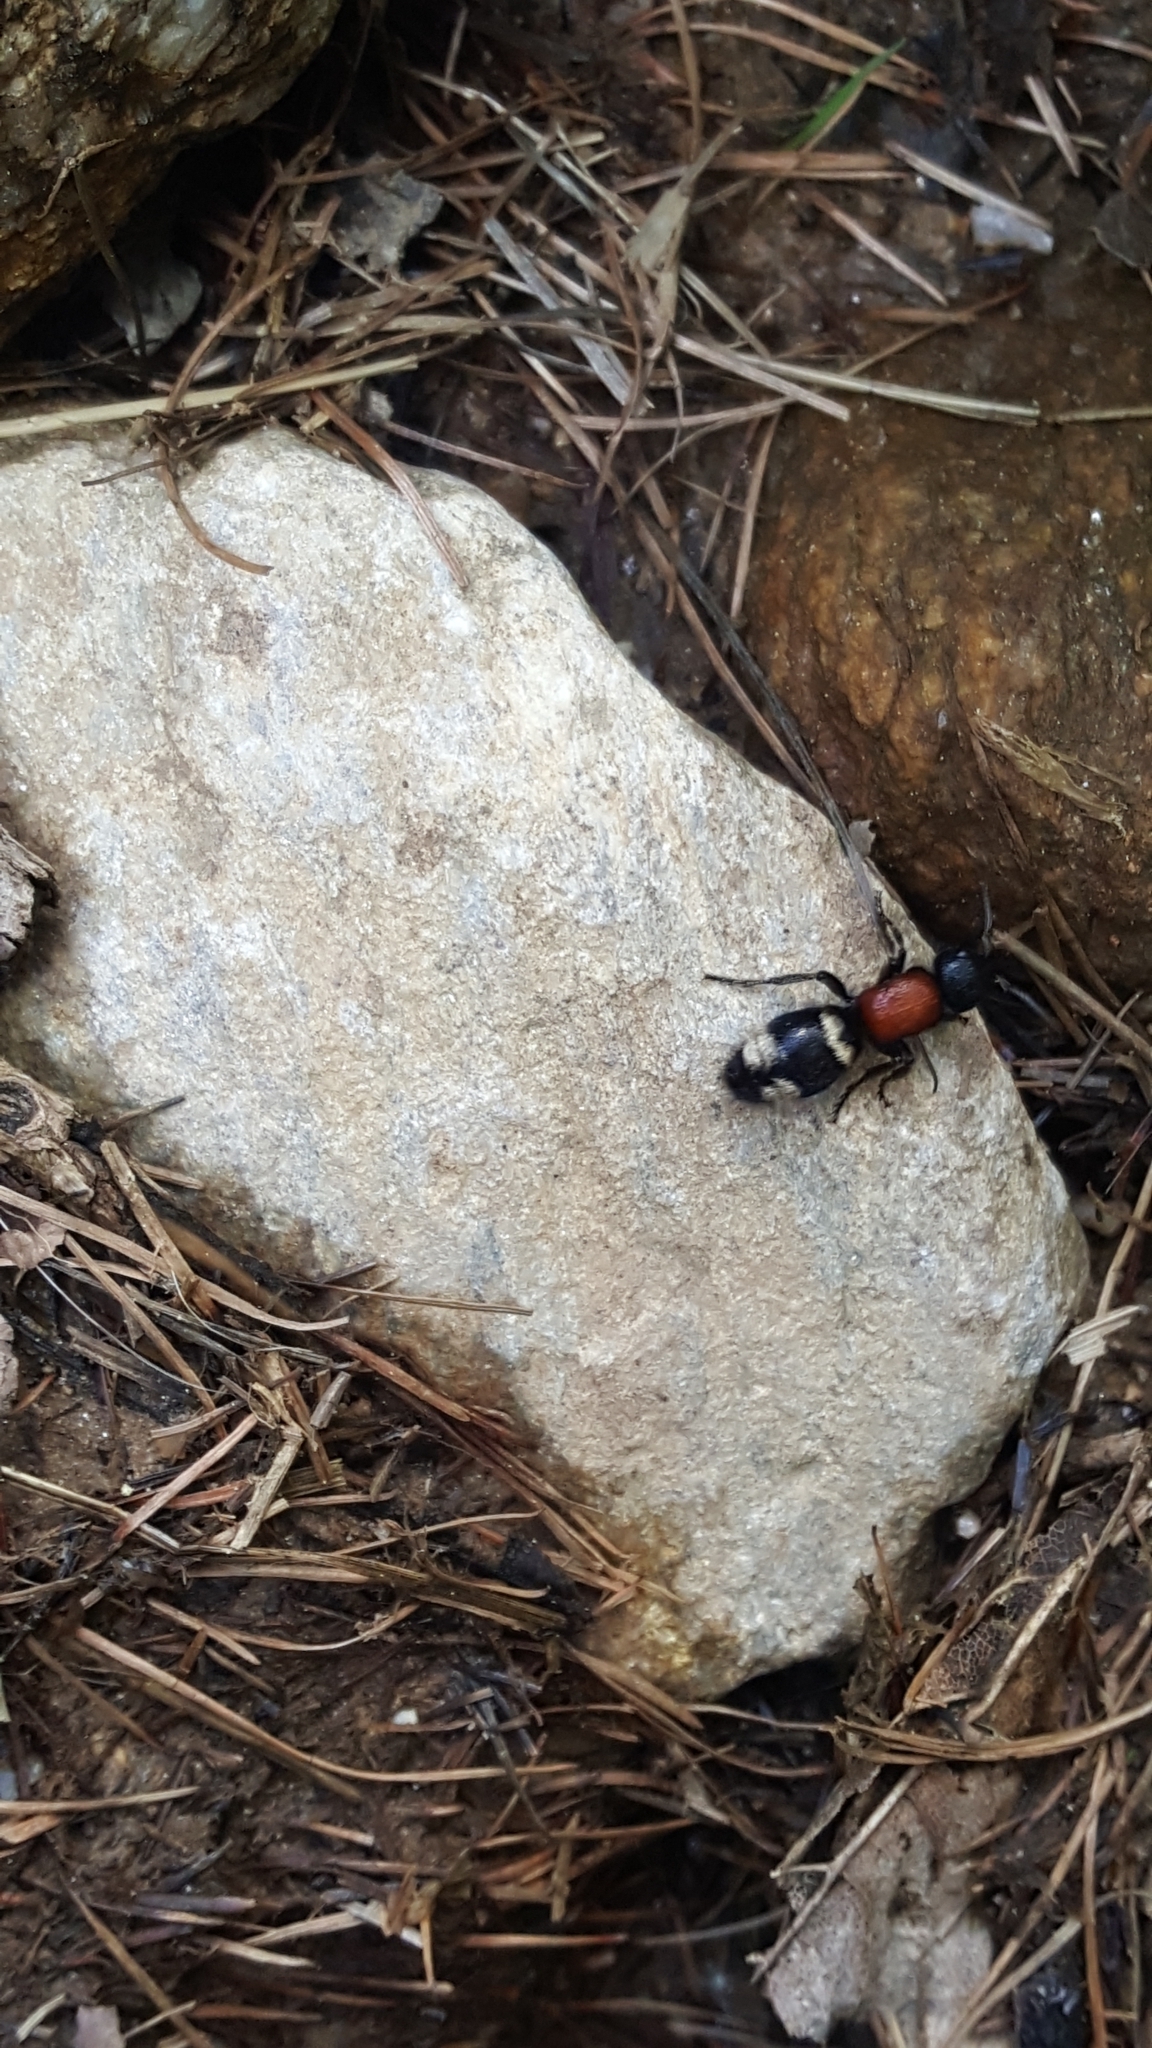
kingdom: Animalia
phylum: Arthropoda
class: Insecta
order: Hymenoptera
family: Mutillidae
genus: Mutilla
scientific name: Mutilla europaea
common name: Large velvet ant
